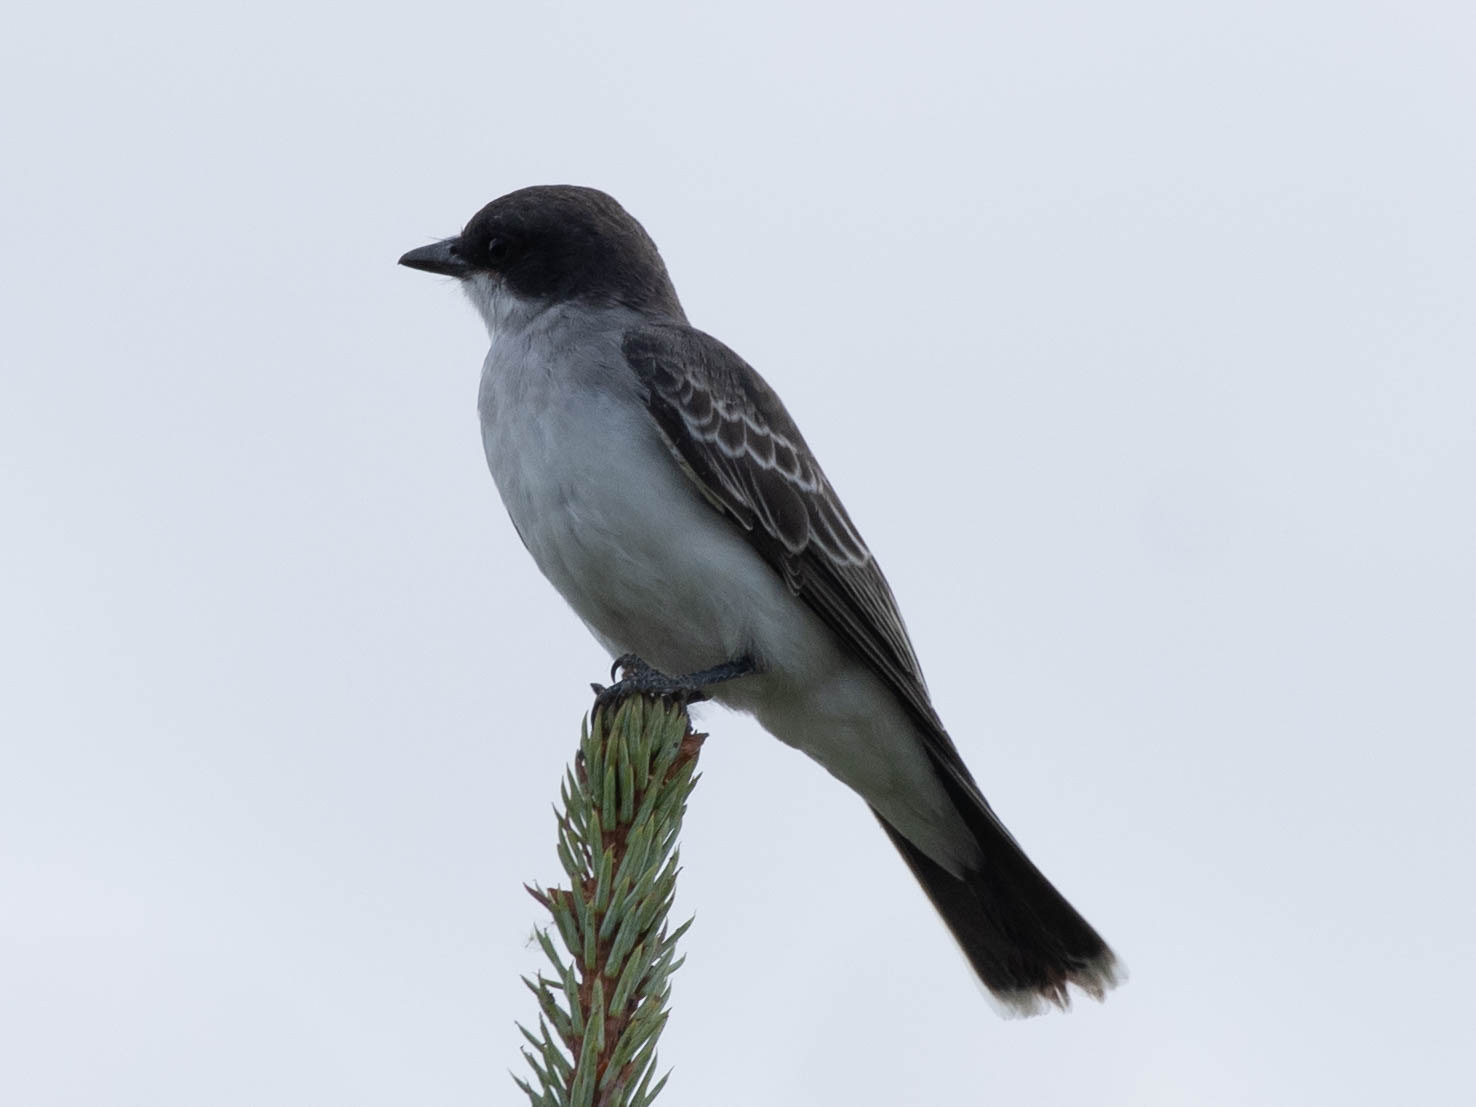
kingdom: Animalia
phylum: Chordata
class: Aves
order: Passeriformes
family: Tyrannidae
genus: Tyrannus
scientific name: Tyrannus tyrannus
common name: Eastern kingbird
